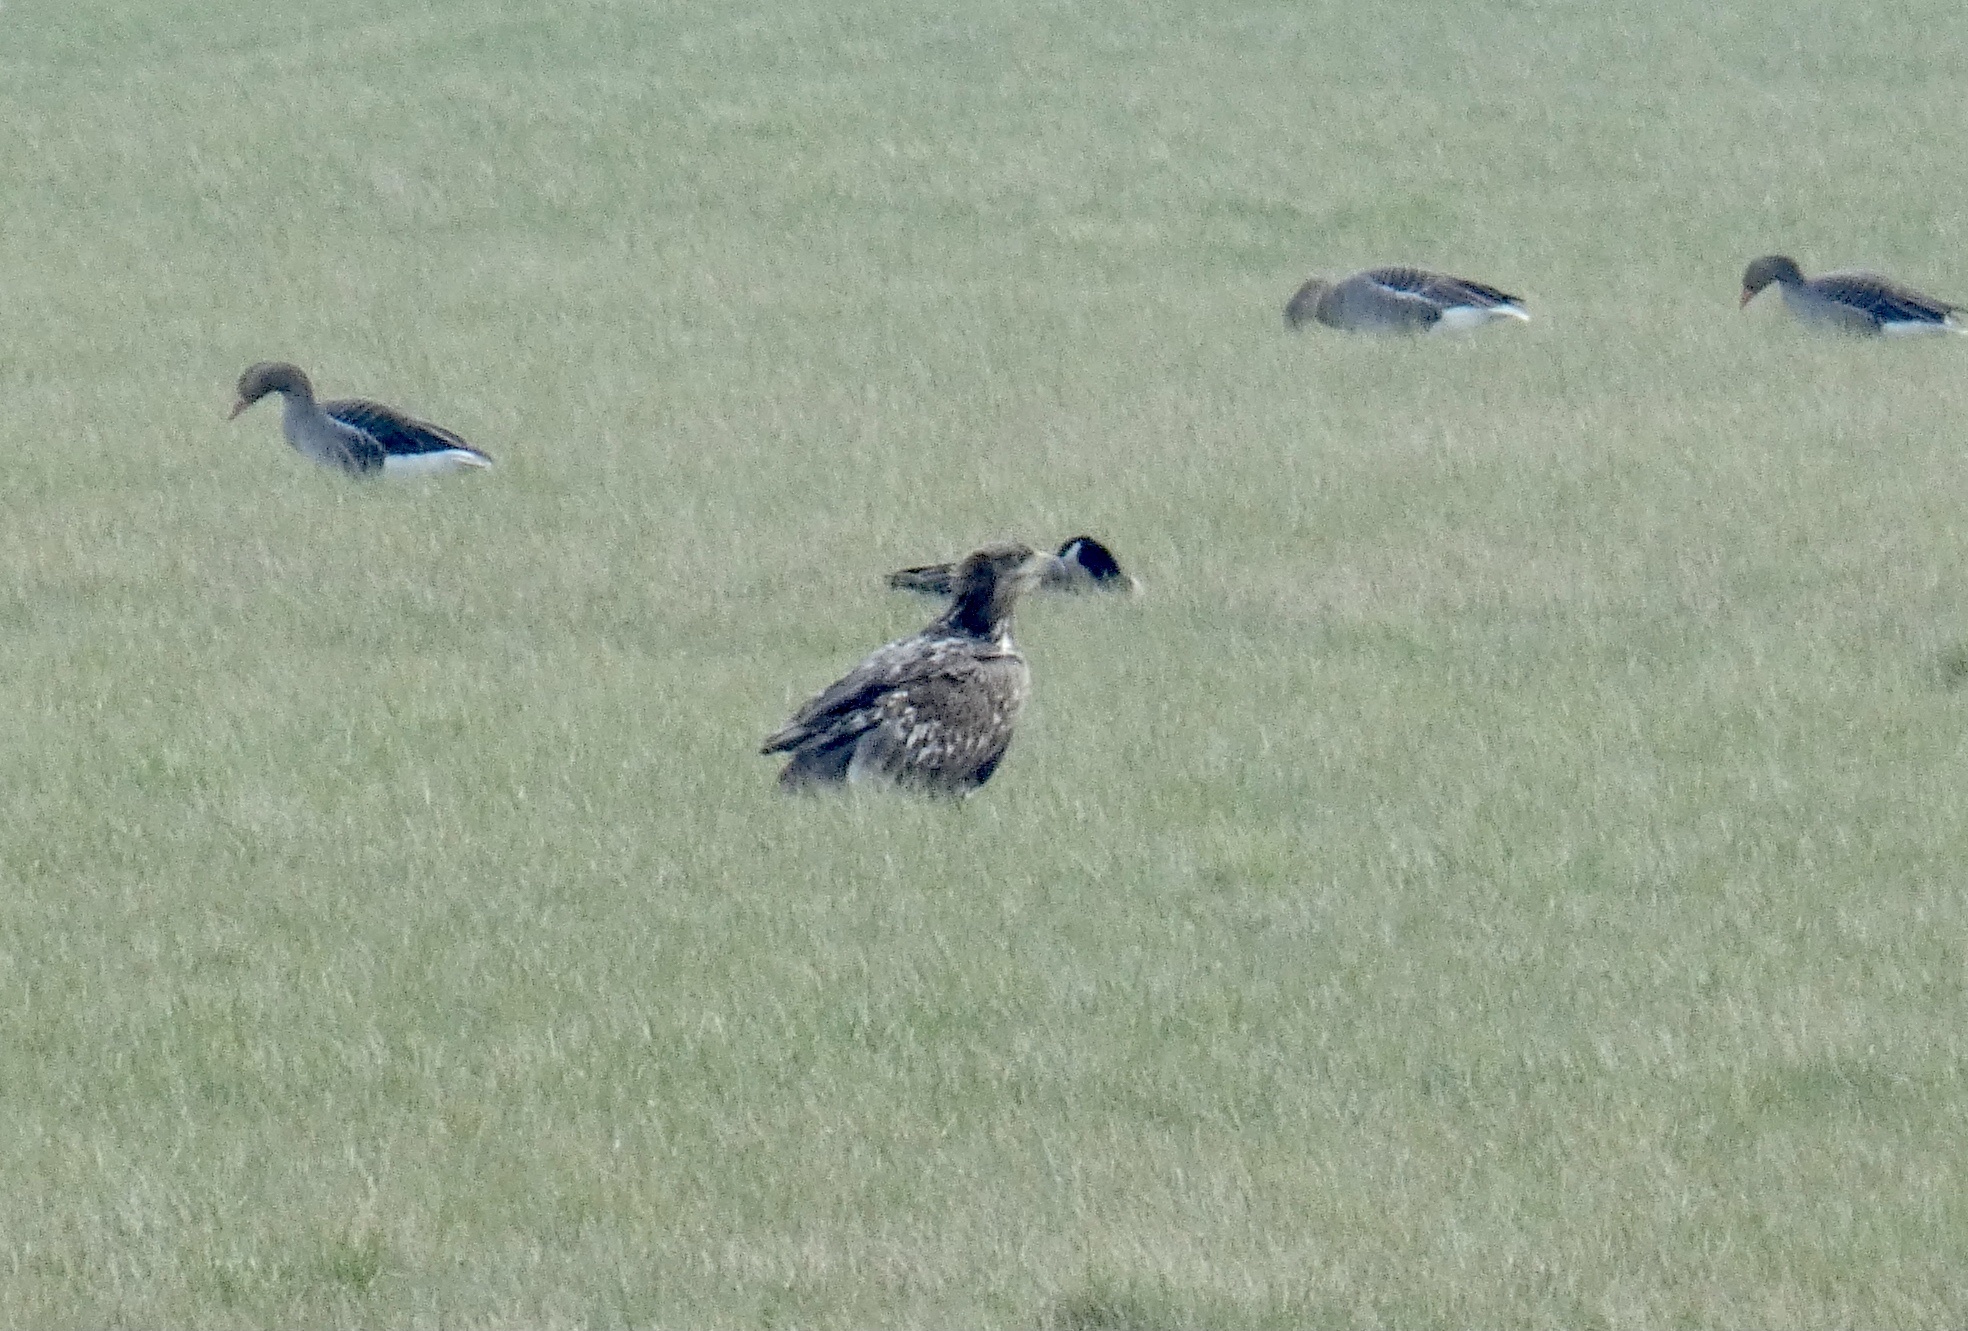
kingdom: Animalia
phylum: Chordata
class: Aves
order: Accipitriformes
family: Accipitridae
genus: Haliaeetus
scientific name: Haliaeetus albicilla
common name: White-tailed eagle
